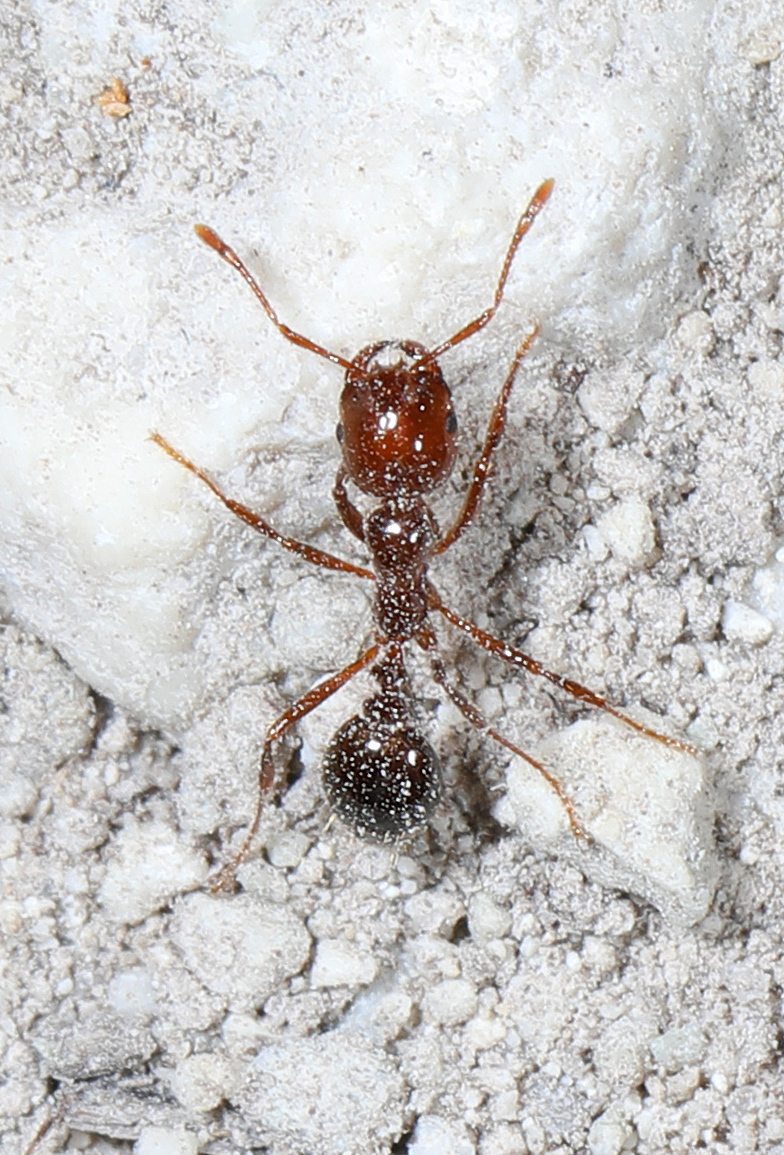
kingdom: Animalia
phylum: Arthropoda
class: Insecta
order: Hymenoptera
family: Formicidae
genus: Solenopsis
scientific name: Solenopsis invicta
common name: Red imported fire ant
